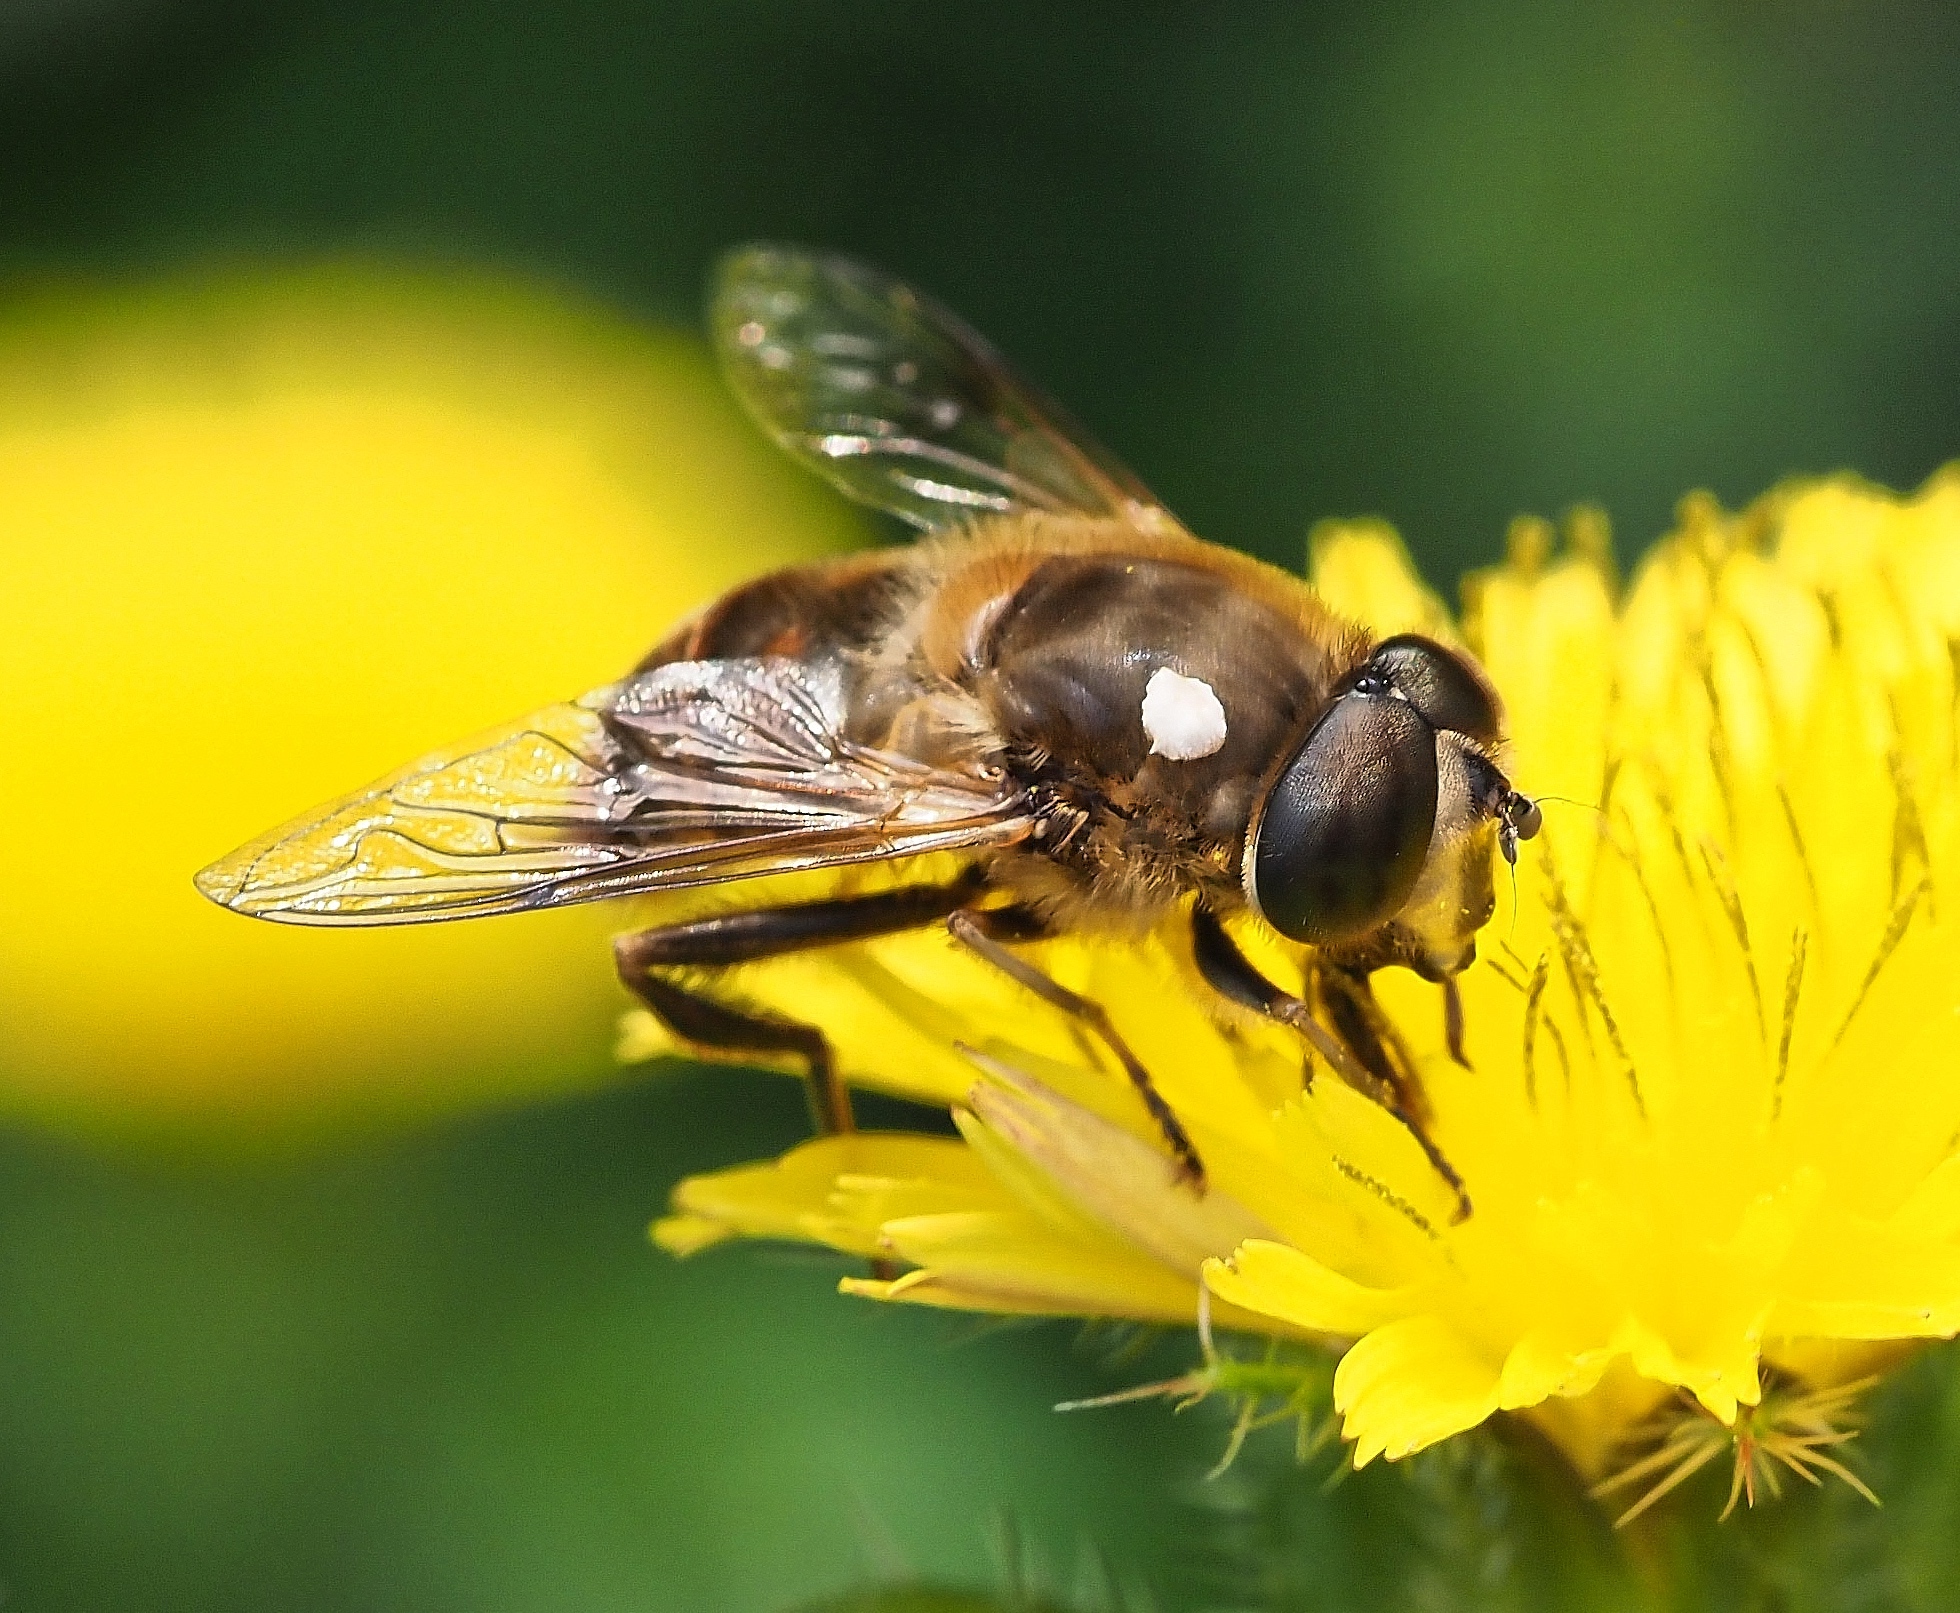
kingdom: Animalia
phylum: Arthropoda
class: Insecta
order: Diptera
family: Syrphidae
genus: Eristalis
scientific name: Eristalis tenax
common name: Drone fly
